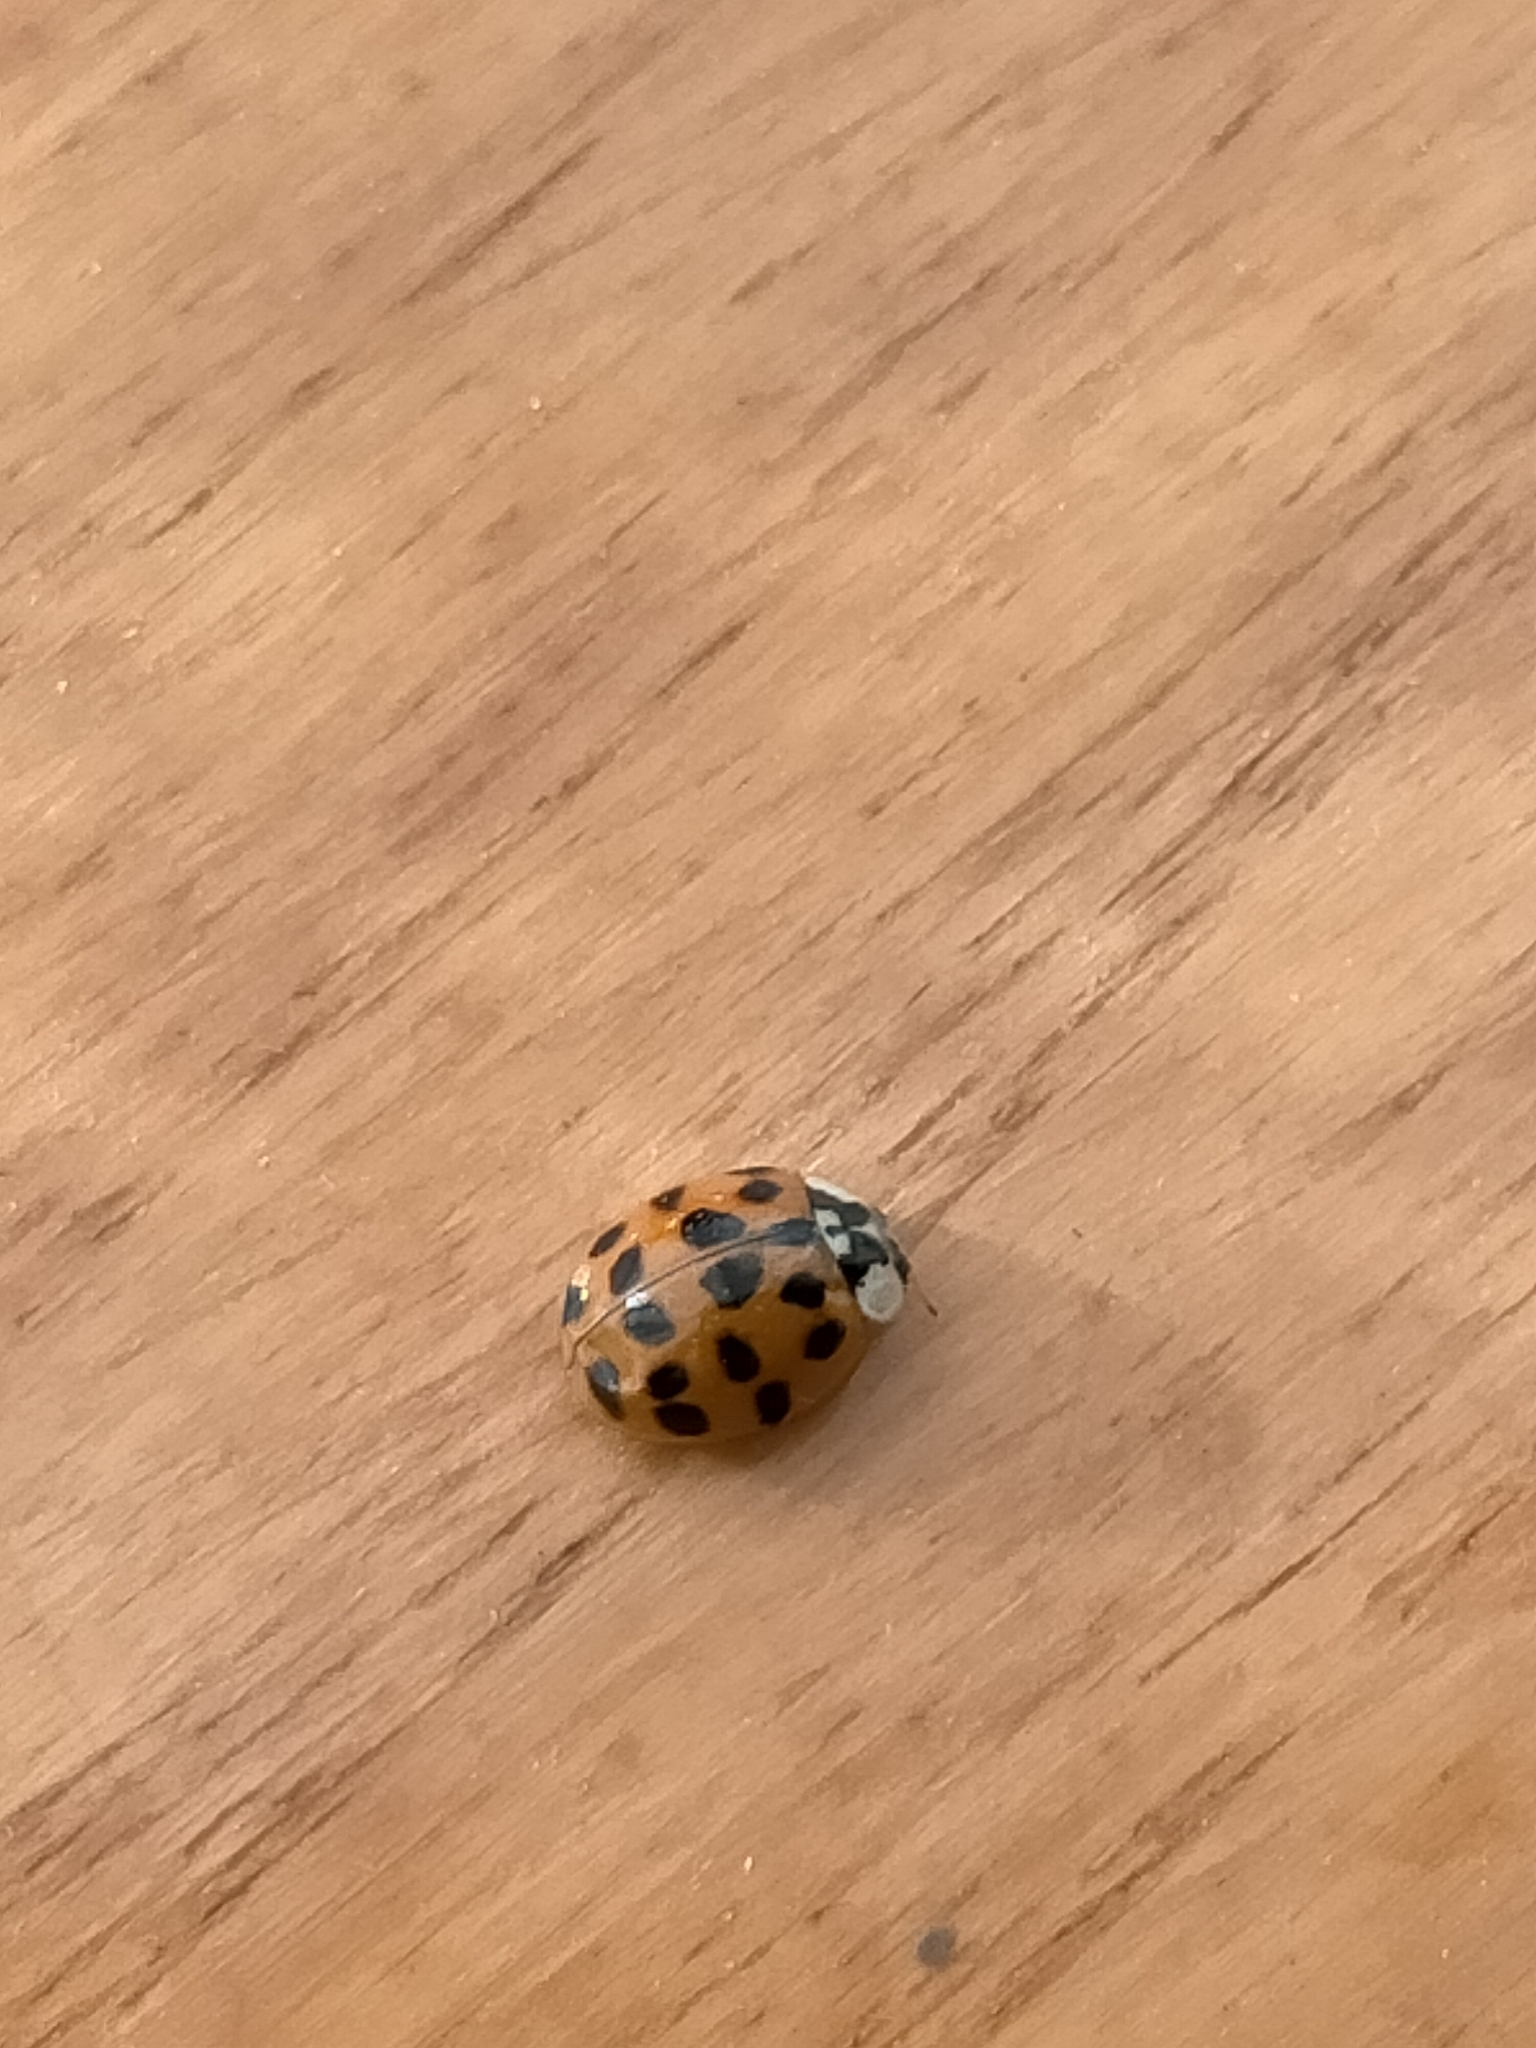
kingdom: Animalia
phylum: Arthropoda
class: Insecta
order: Coleoptera
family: Coccinellidae
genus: Harmonia
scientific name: Harmonia axyridis
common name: Harlequin ladybird
